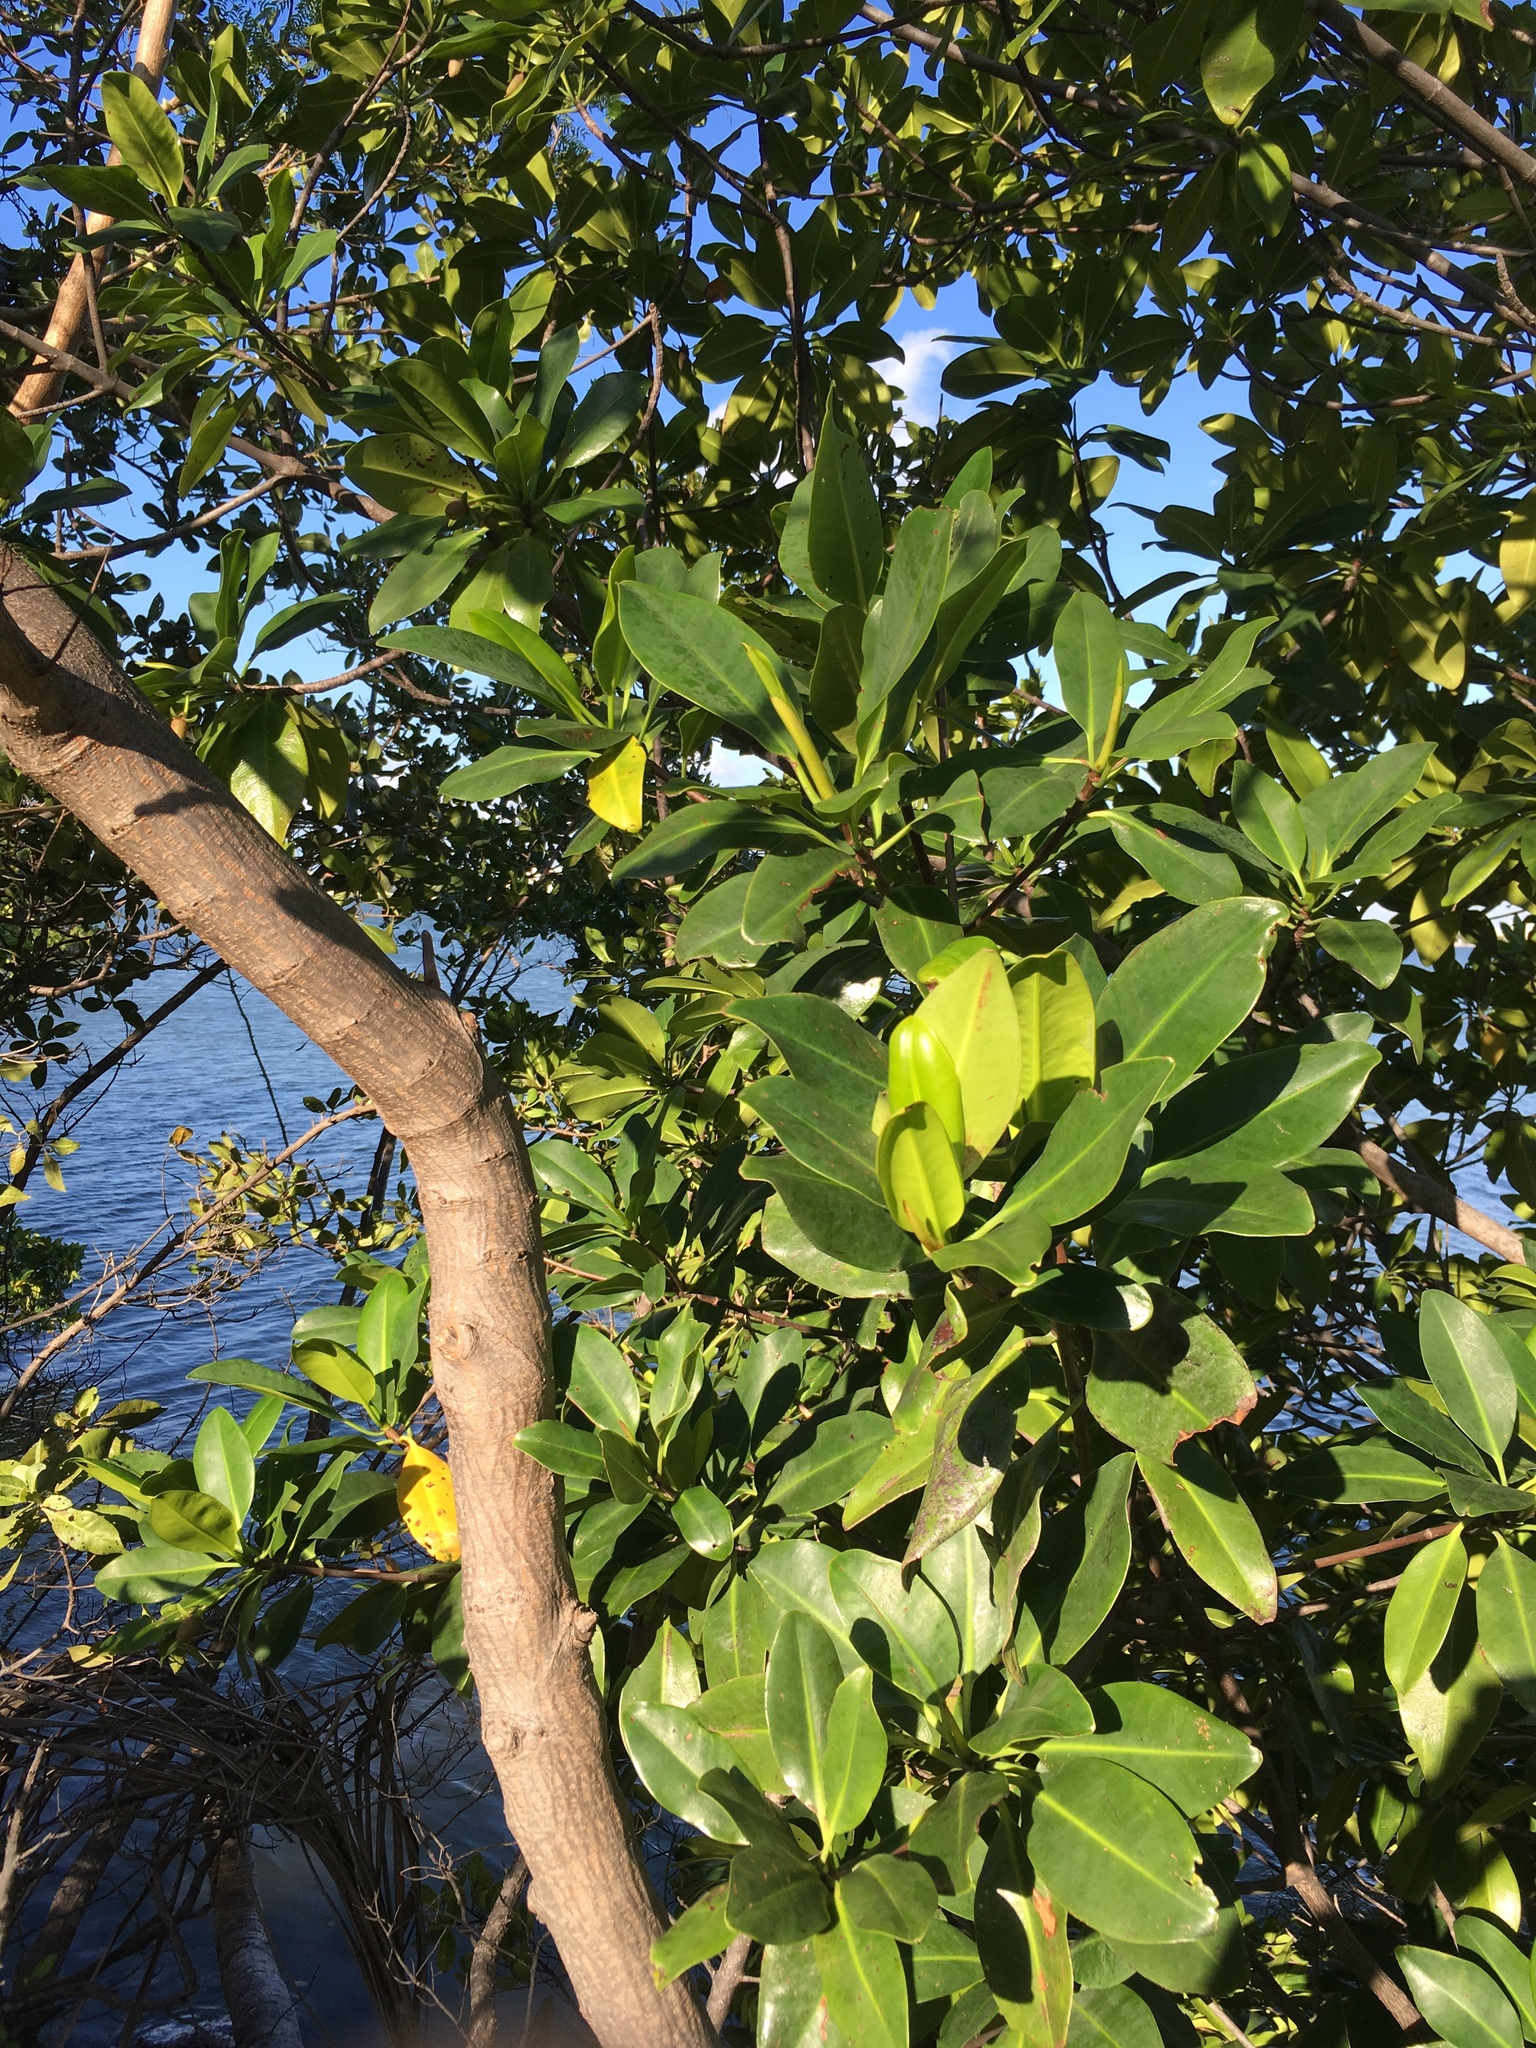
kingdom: Plantae
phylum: Tracheophyta
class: Magnoliopsida
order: Malpighiales
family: Rhizophoraceae
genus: Rhizophora
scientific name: Rhizophora mangle
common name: Red mangrove
